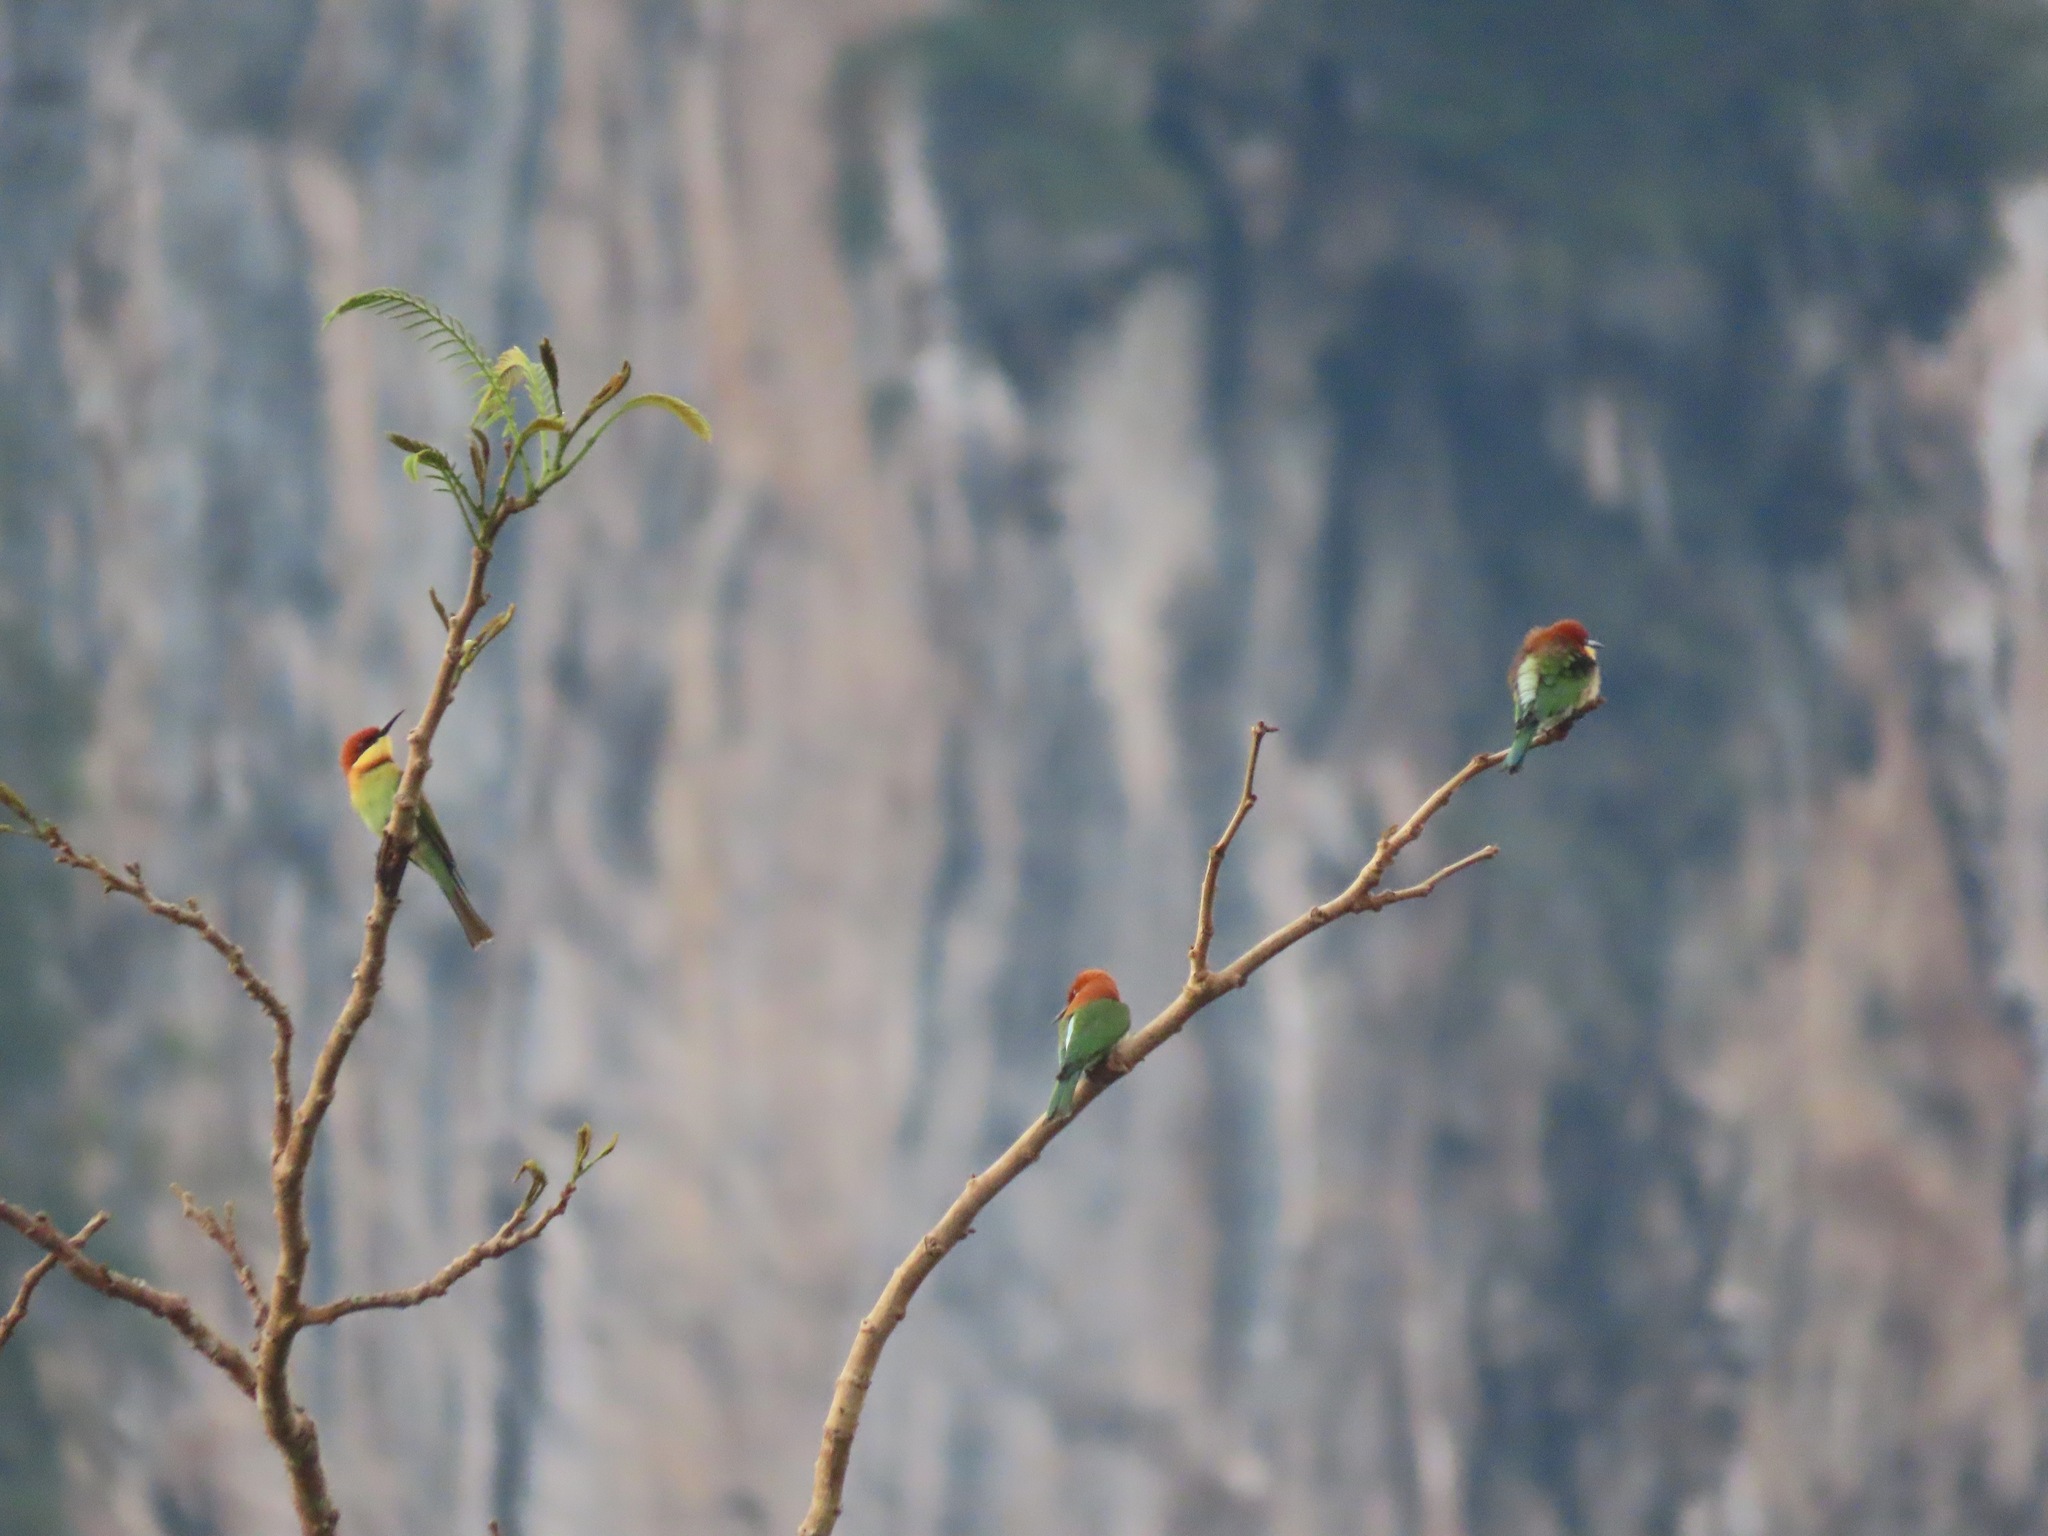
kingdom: Animalia
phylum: Chordata
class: Aves
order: Coraciiformes
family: Meropidae
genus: Merops
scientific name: Merops leschenaulti
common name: Chestnut-headed bee-eater
